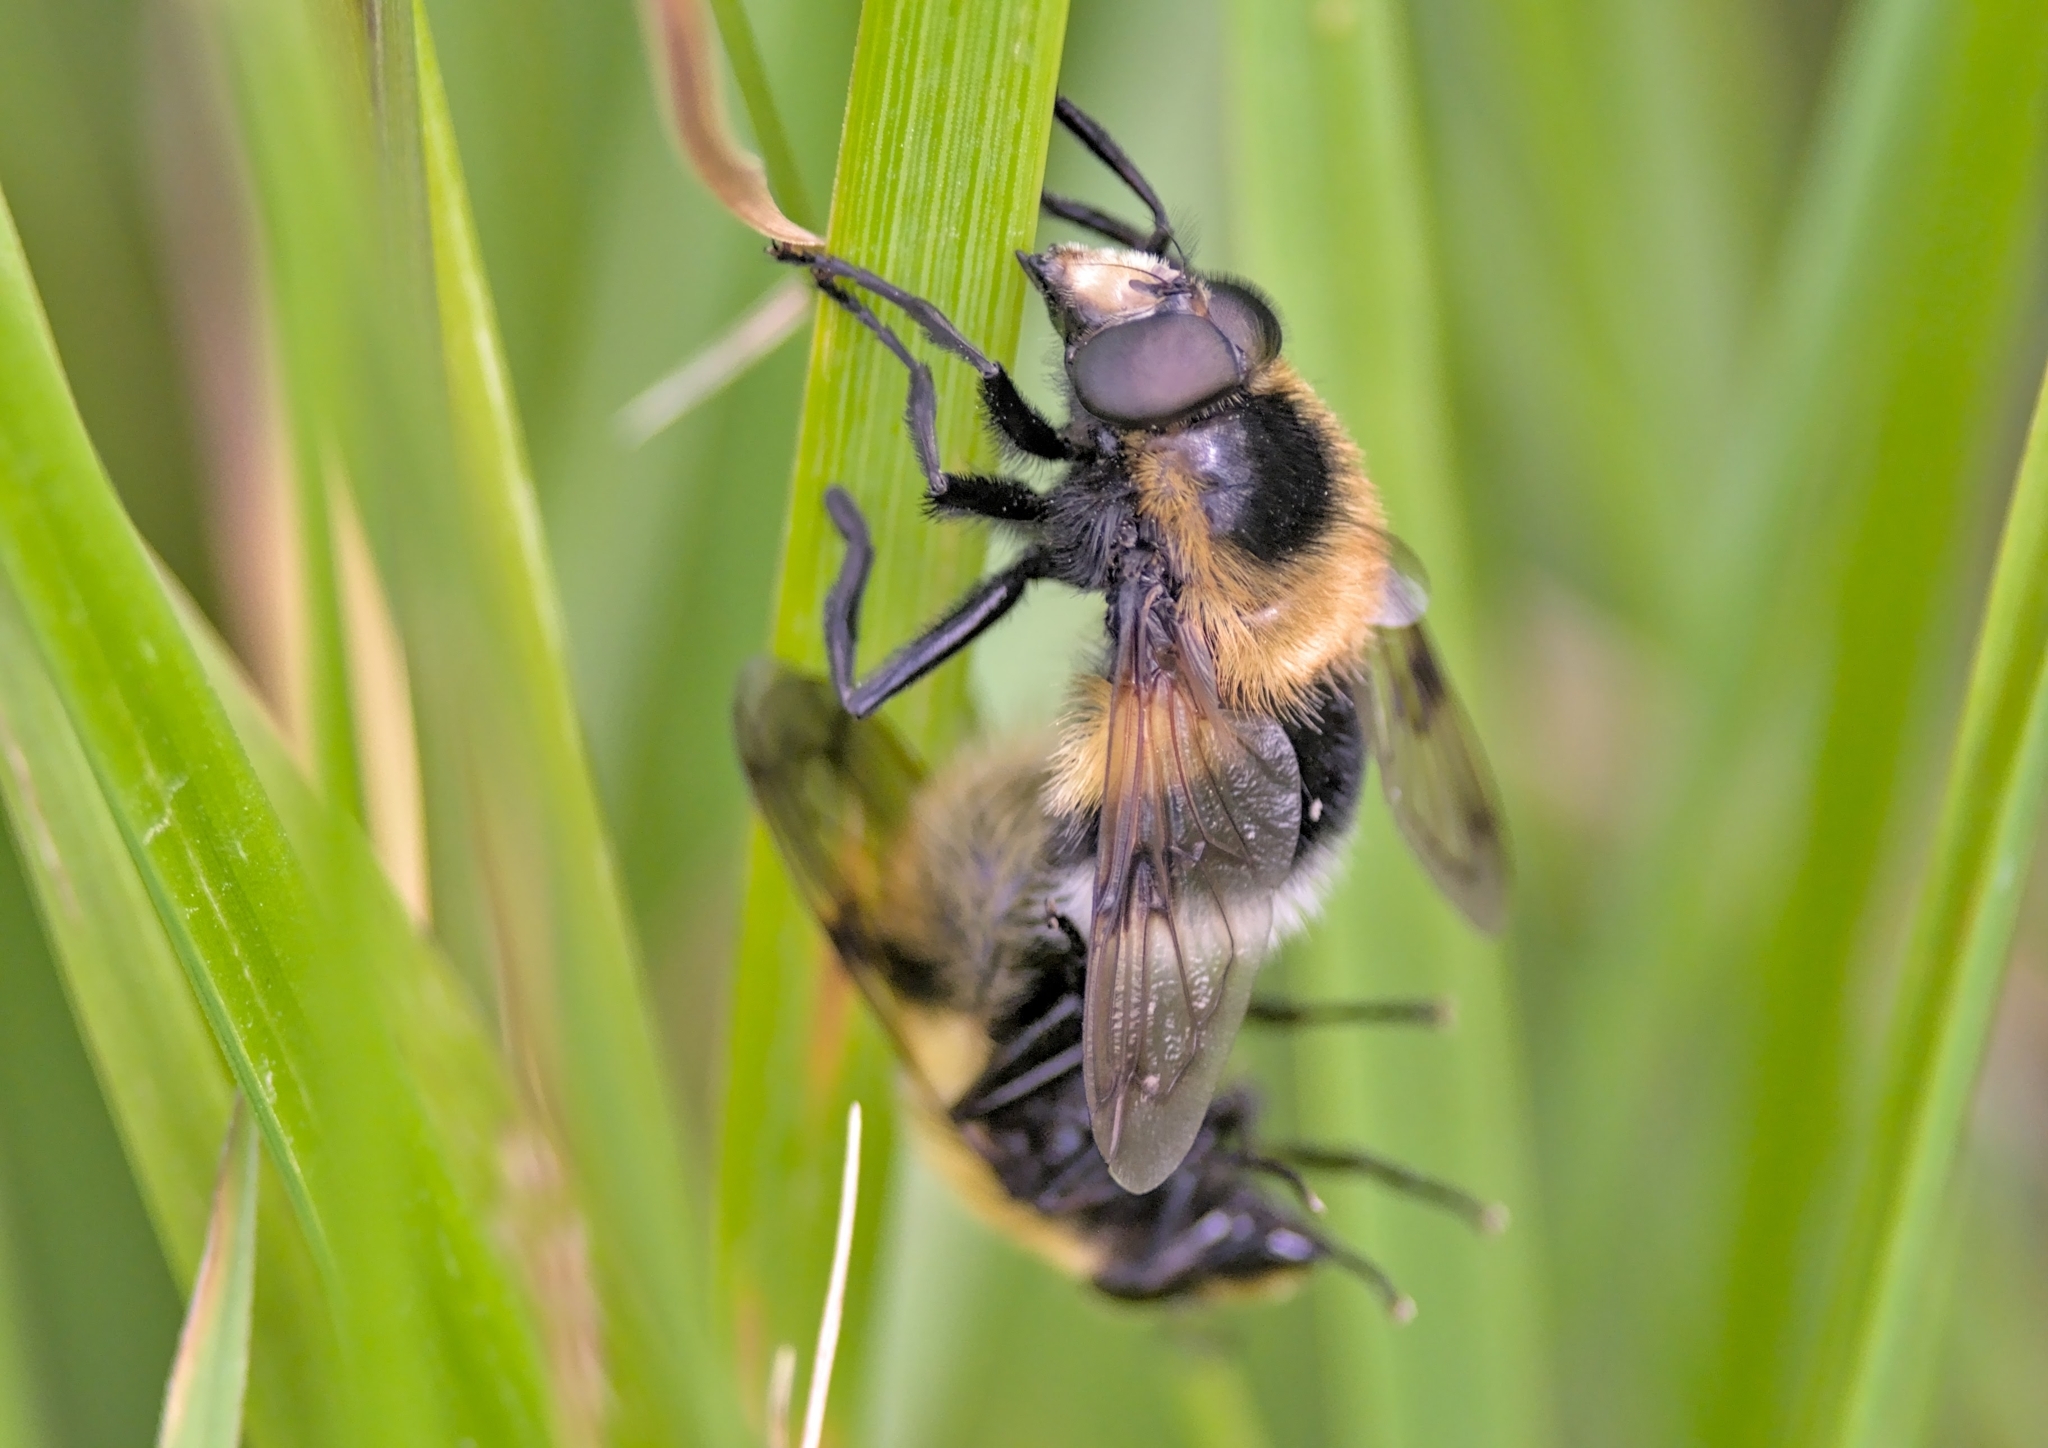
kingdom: Animalia
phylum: Arthropoda
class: Insecta
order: Diptera
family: Syrphidae
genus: Volucella
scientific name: Volucella bombylans
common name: Bumble bee hover fly
